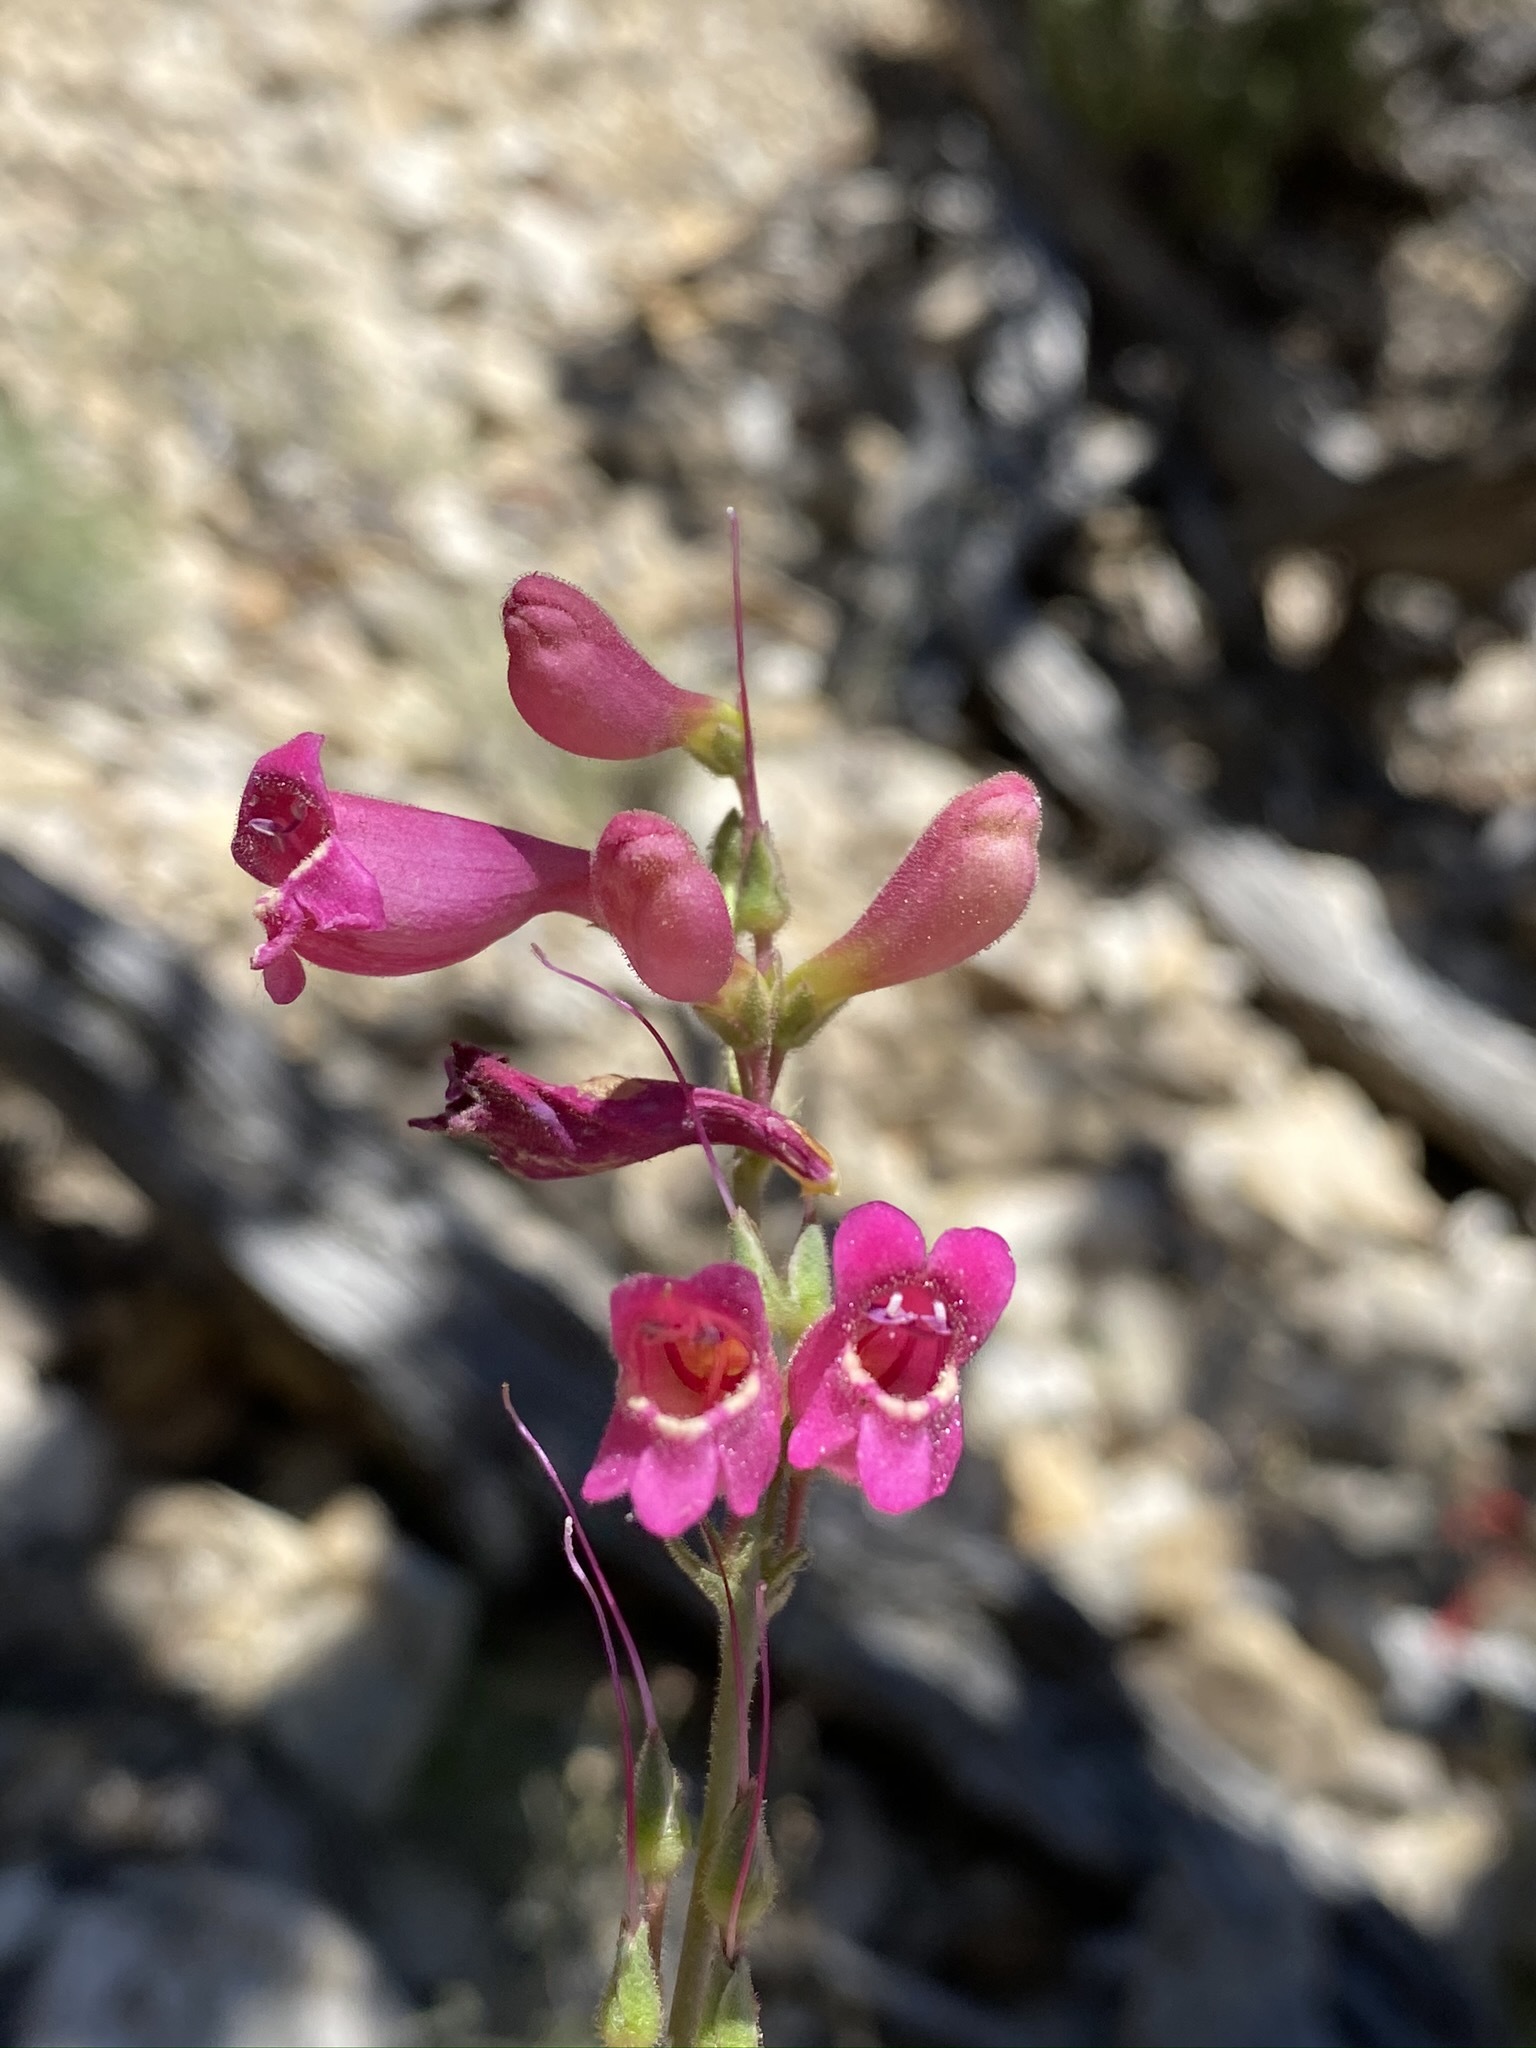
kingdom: Plantae
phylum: Tracheophyta
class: Magnoliopsida
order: Lamiales
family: Plantaginaceae
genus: Penstemon
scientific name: Penstemon floridus
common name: Panamint penstemon
